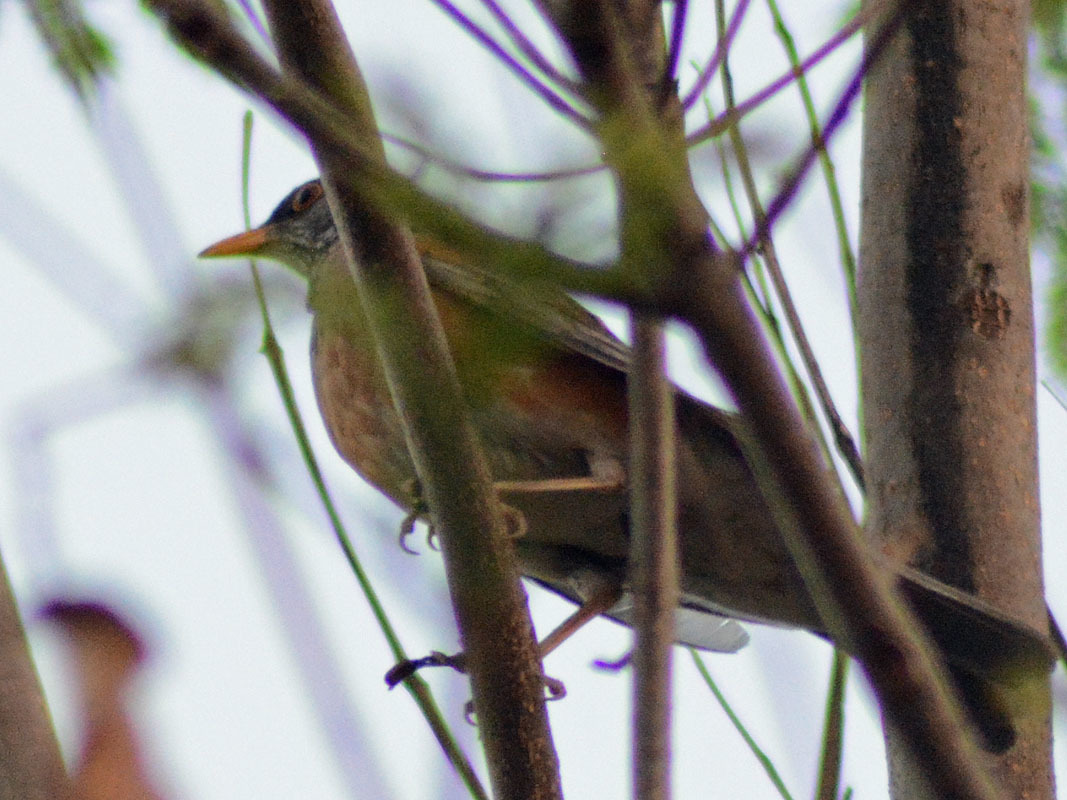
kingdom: Animalia
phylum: Chordata
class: Aves
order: Passeriformes
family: Turdidae
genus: Turdus
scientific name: Turdus rufopalliatus
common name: Rufous-backed robin
